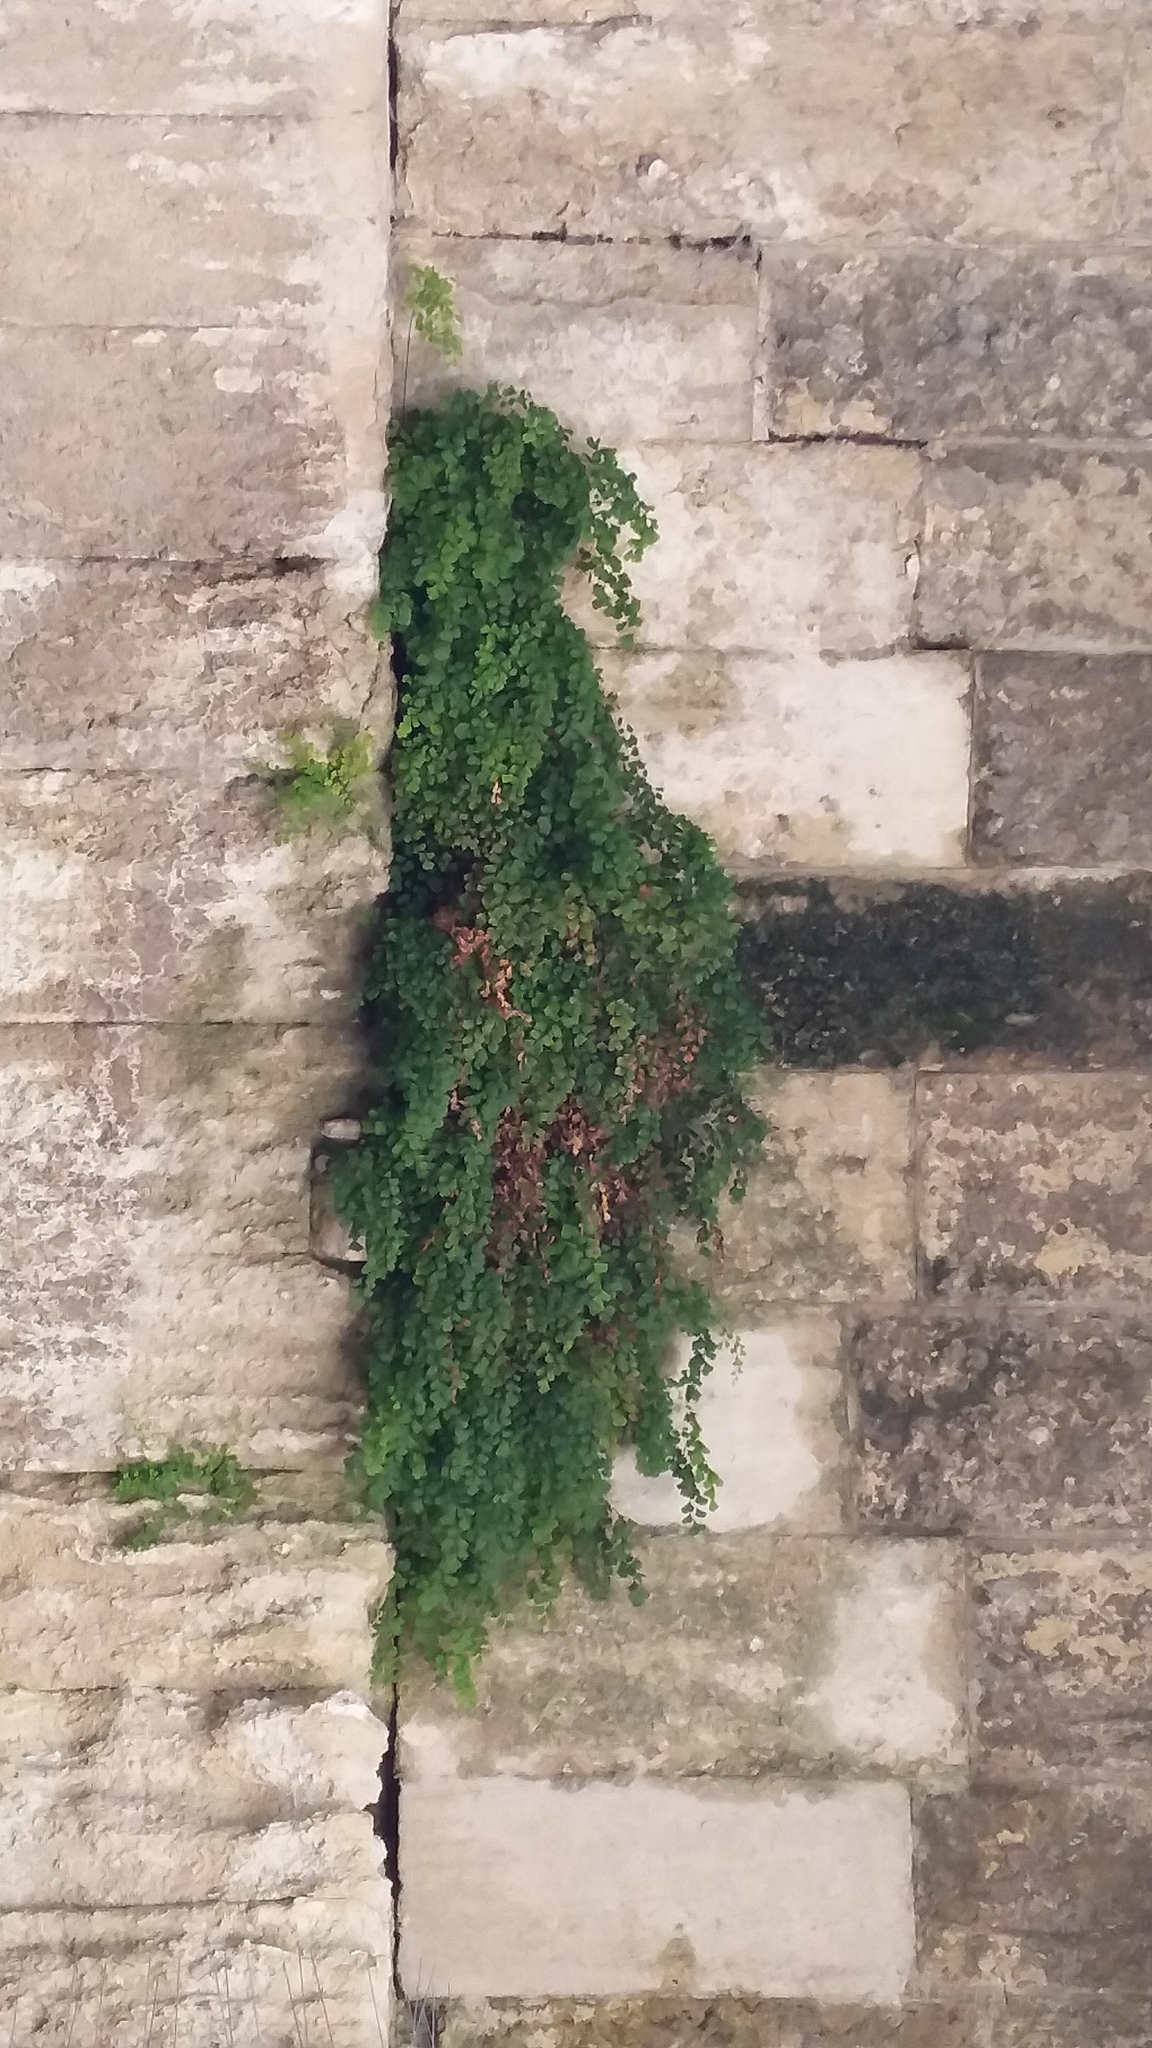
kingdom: Plantae
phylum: Tracheophyta
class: Polypodiopsida
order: Polypodiales
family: Pteridaceae
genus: Adiantum
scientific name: Adiantum capillus-veneris
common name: Maidenhair fern
